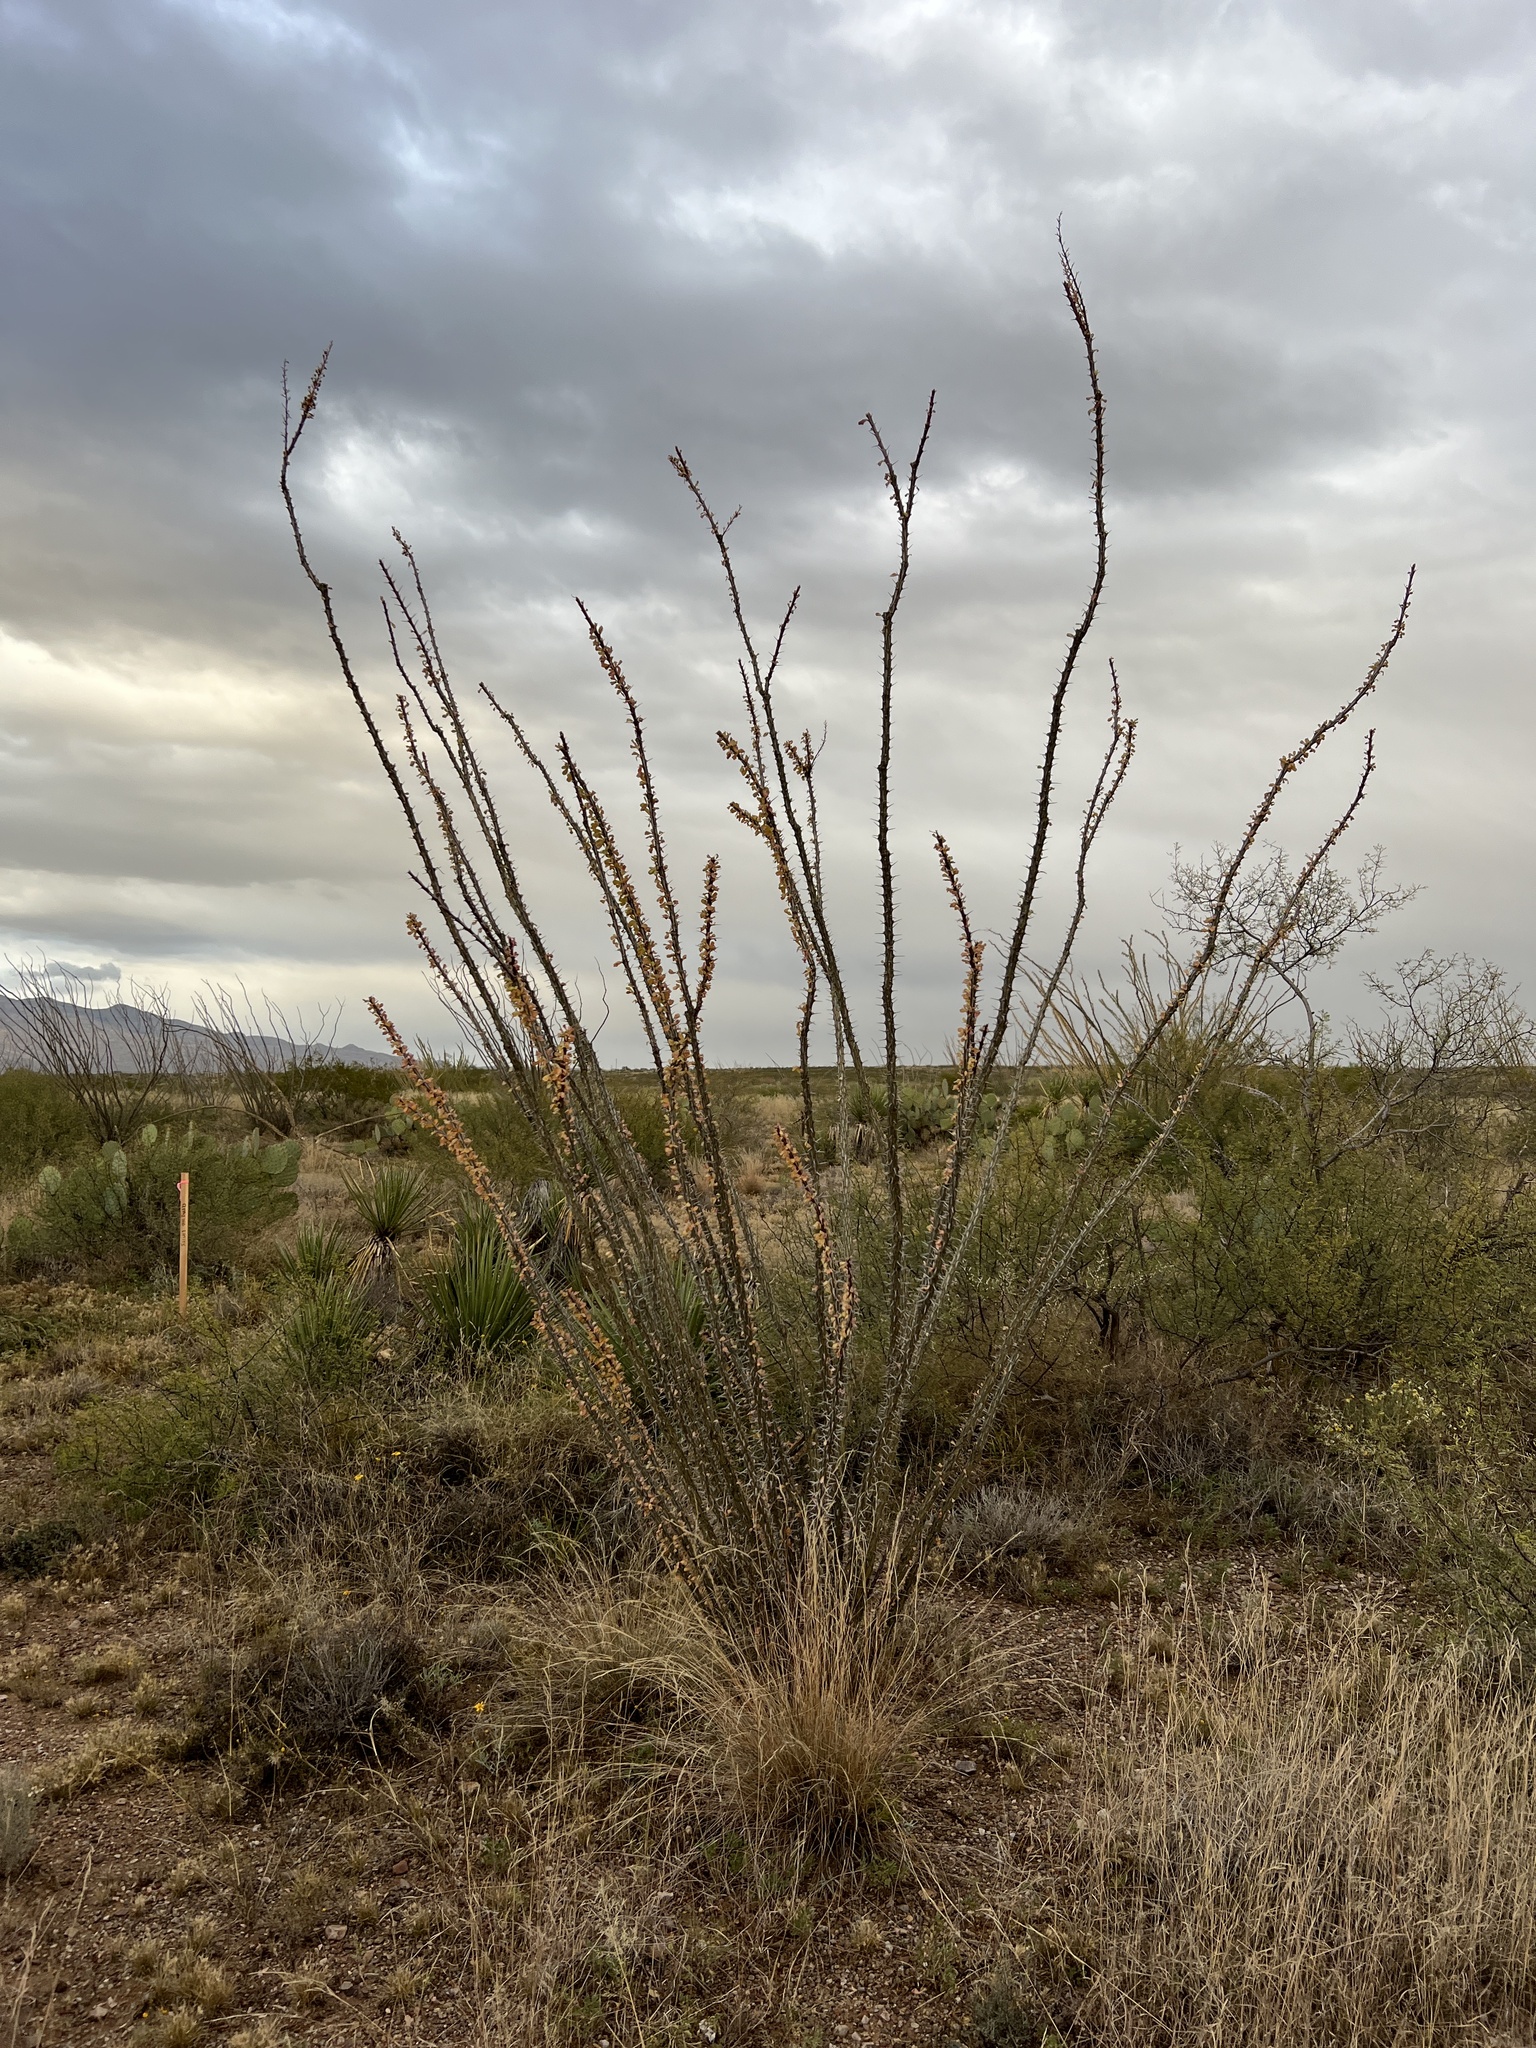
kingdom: Plantae
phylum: Tracheophyta
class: Magnoliopsida
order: Ericales
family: Fouquieriaceae
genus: Fouquieria
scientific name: Fouquieria splendens
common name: Vine-cactus
